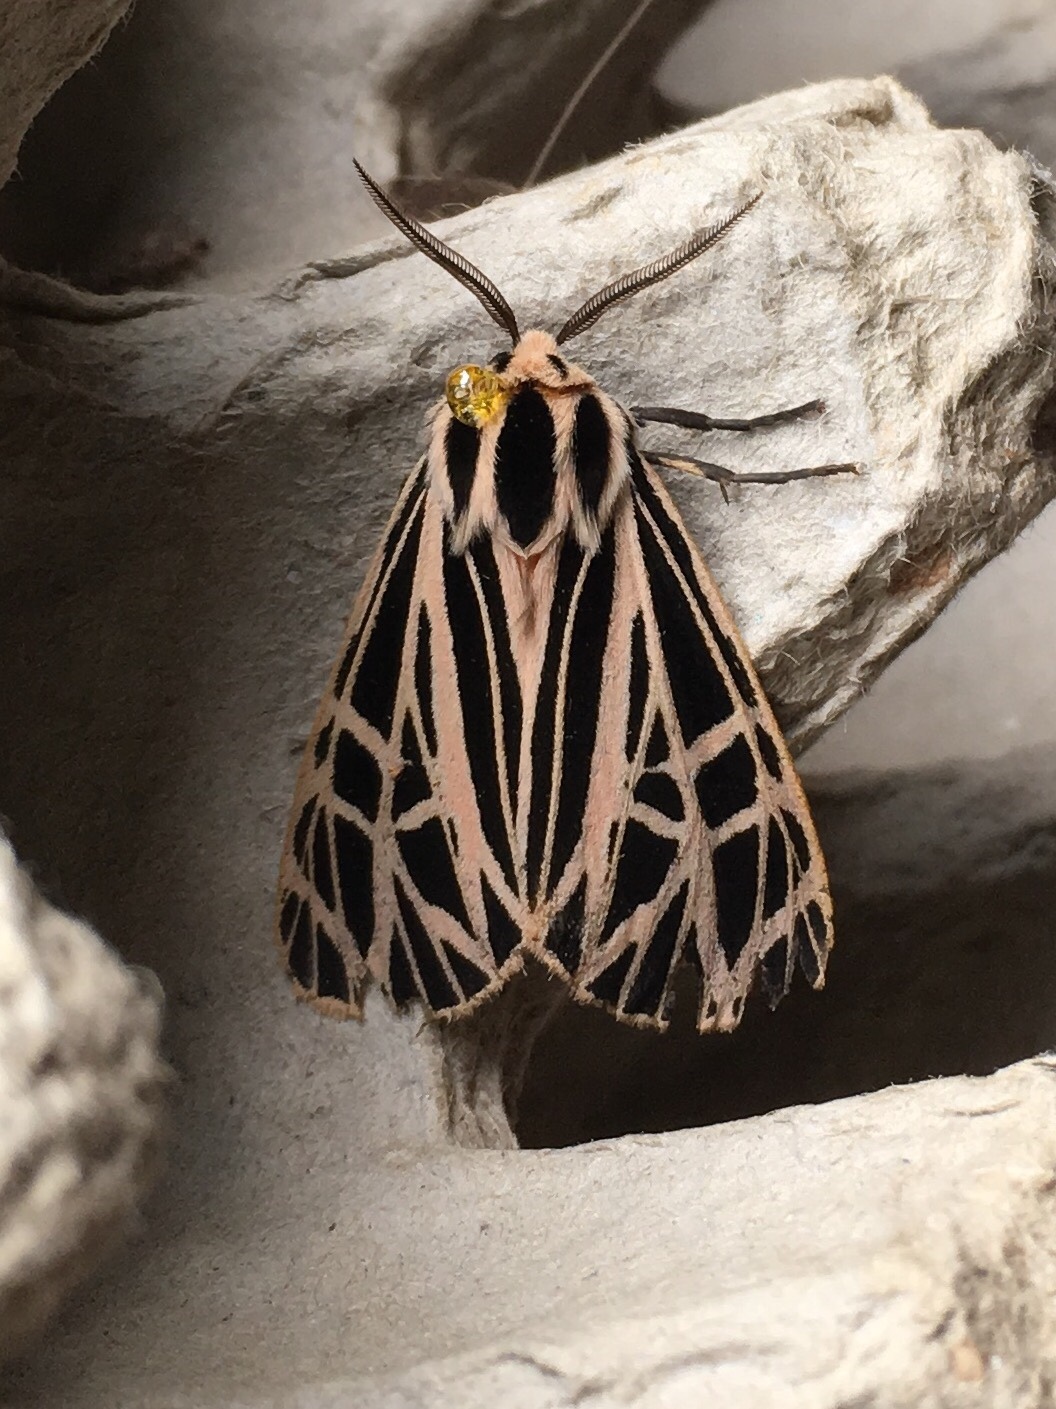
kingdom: Animalia
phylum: Arthropoda
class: Insecta
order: Lepidoptera
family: Erebidae
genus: Grammia
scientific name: Grammia virgo
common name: Virgin tiger moth
